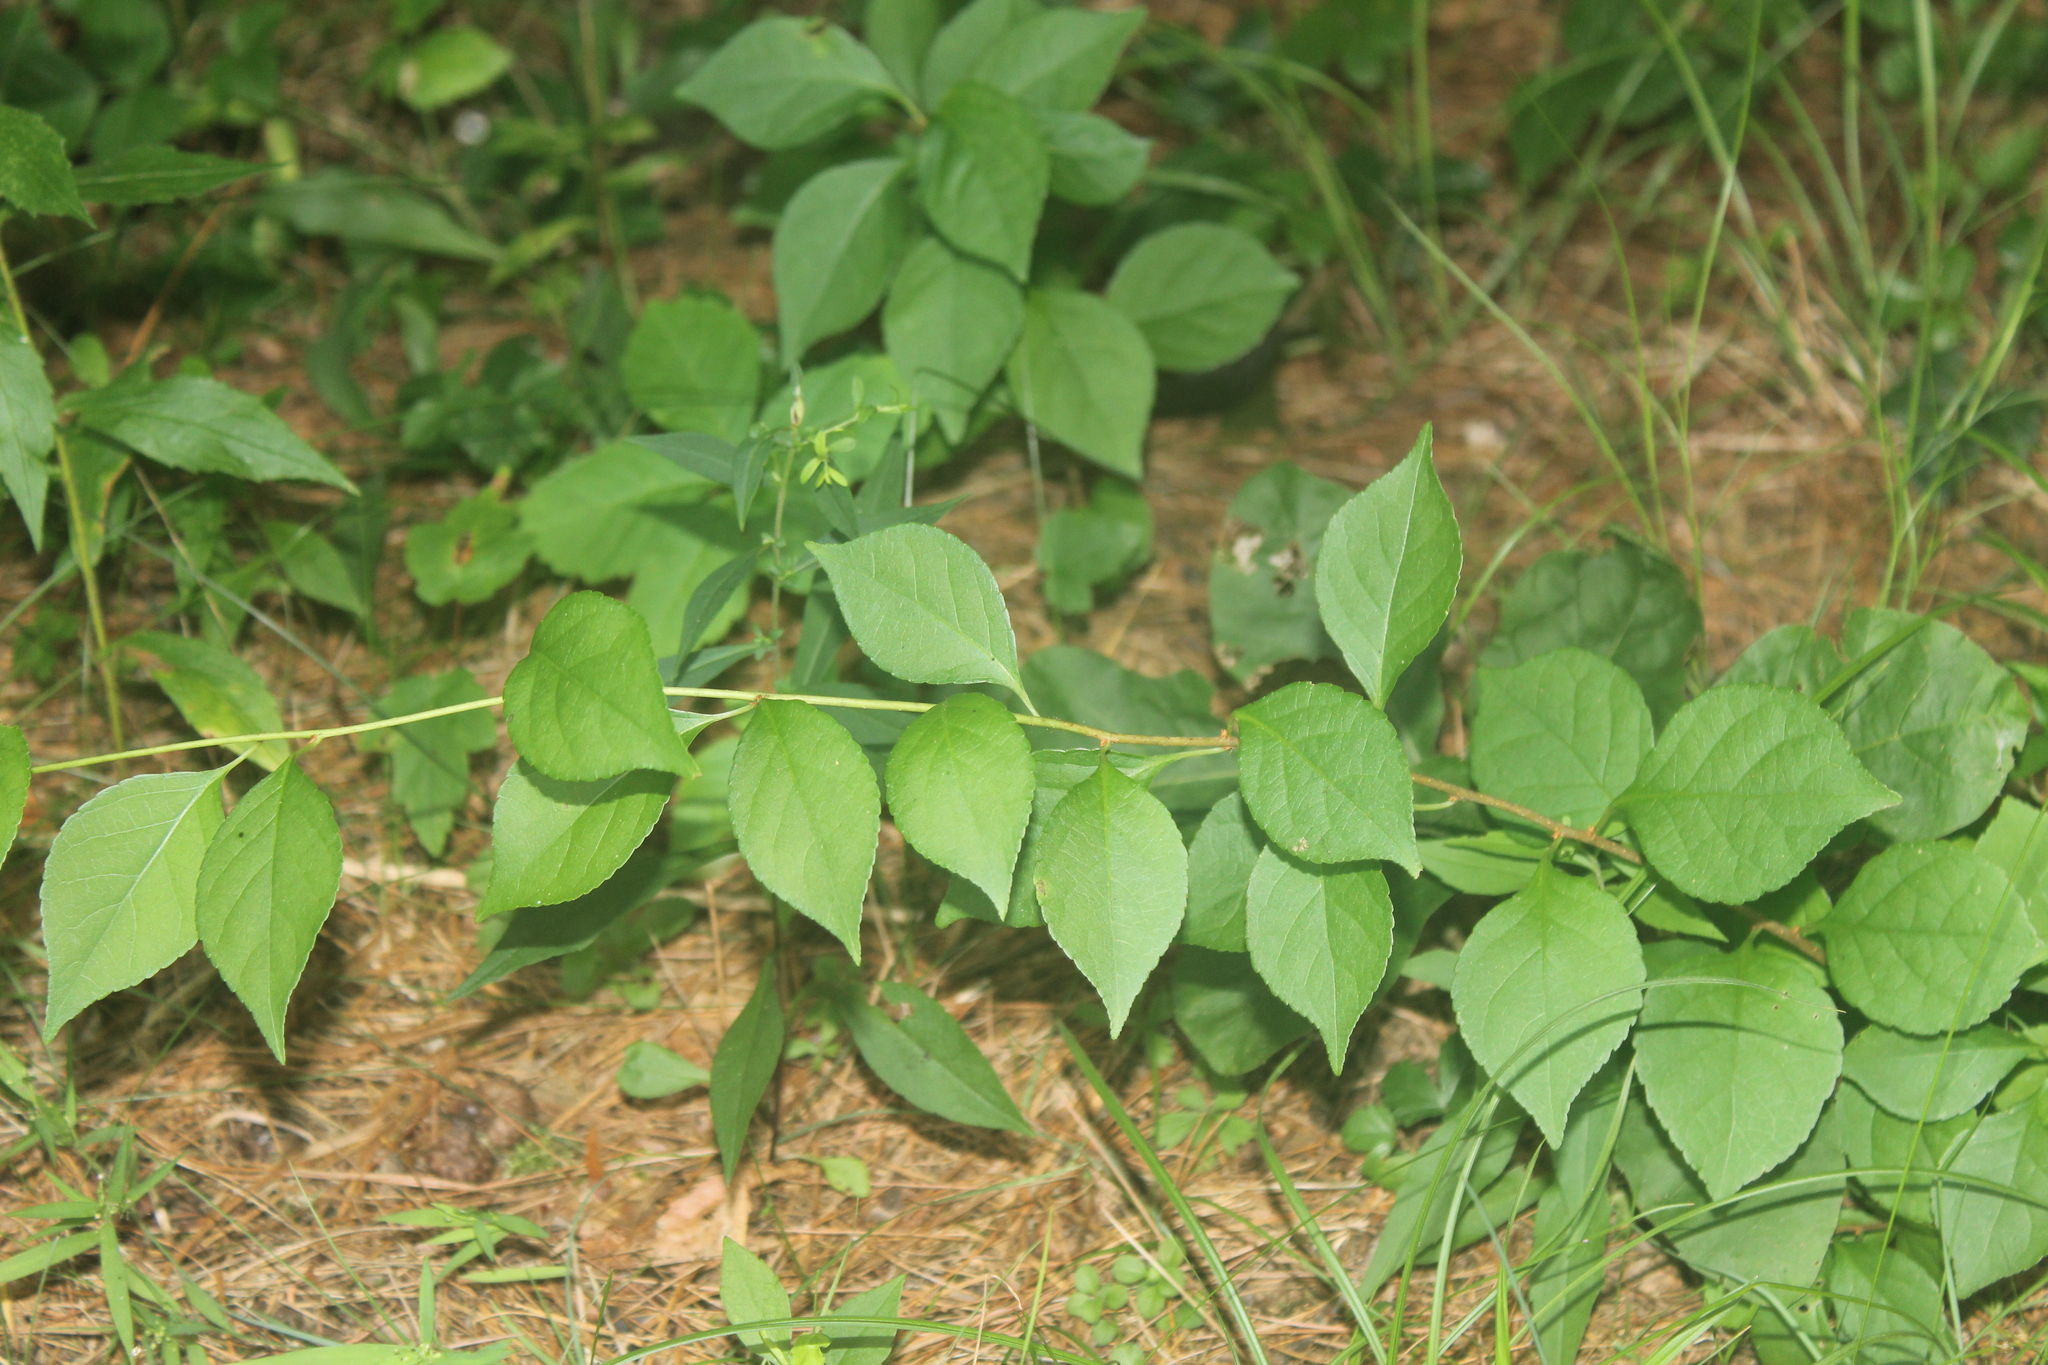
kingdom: Plantae
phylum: Tracheophyta
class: Magnoliopsida
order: Celastrales
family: Celastraceae
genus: Celastrus
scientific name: Celastrus orbiculatus
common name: Oriental bittersweet
